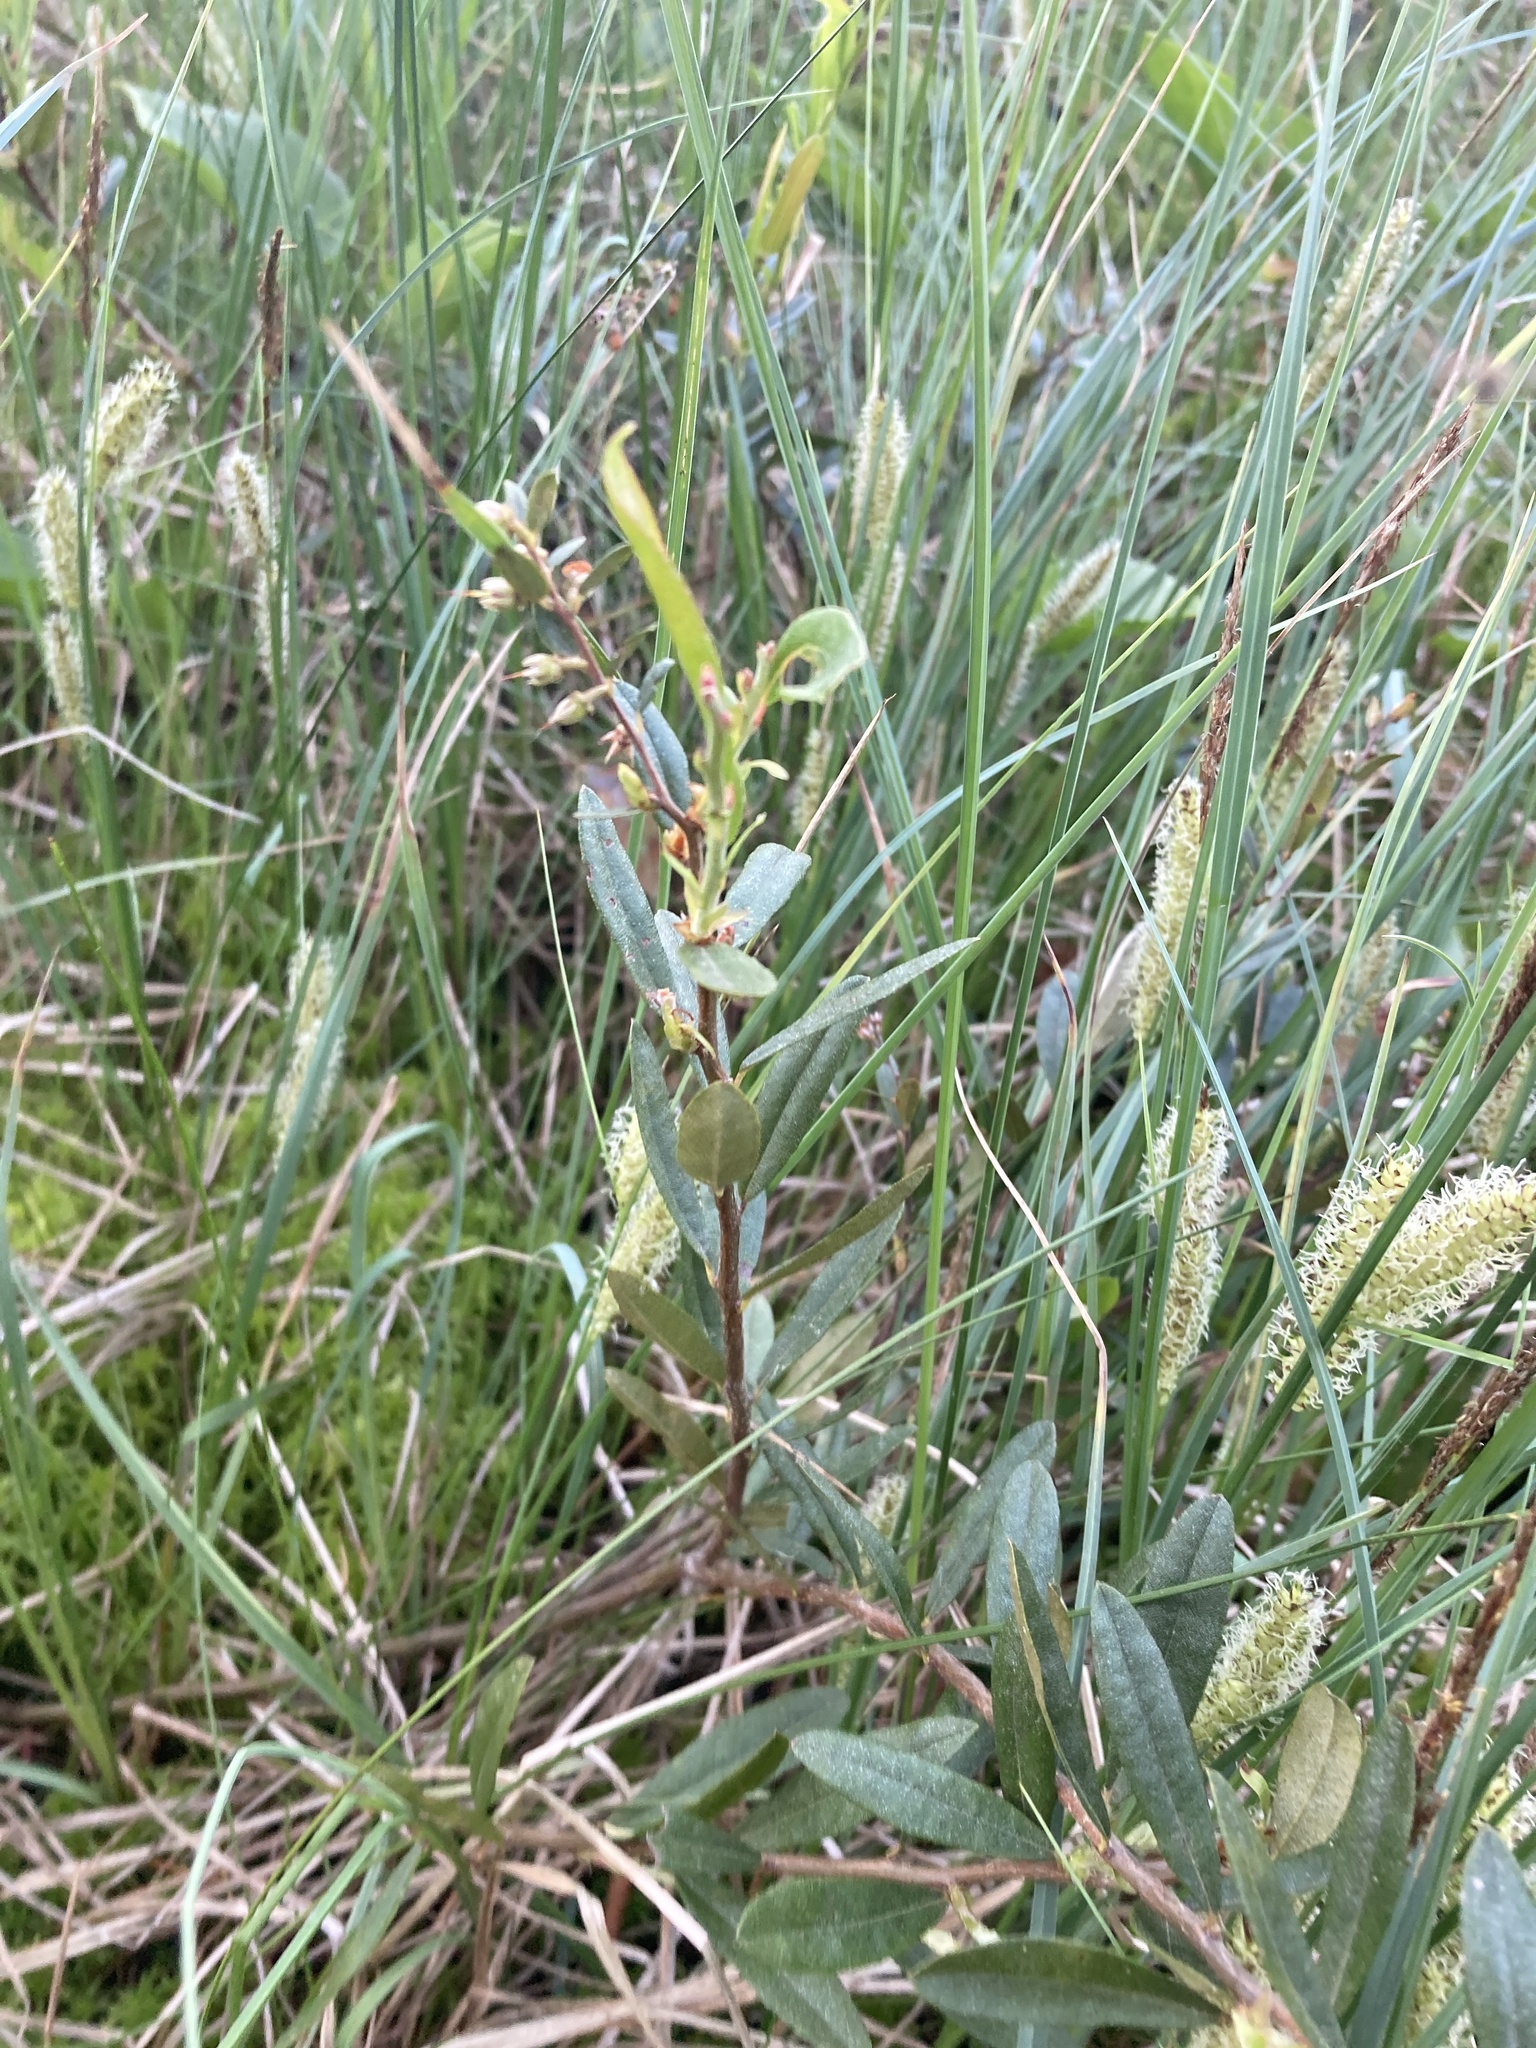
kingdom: Plantae
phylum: Tracheophyta
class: Magnoliopsida
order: Ericales
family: Ericaceae
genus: Chamaedaphne
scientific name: Chamaedaphne calyculata
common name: Leatherleaf
